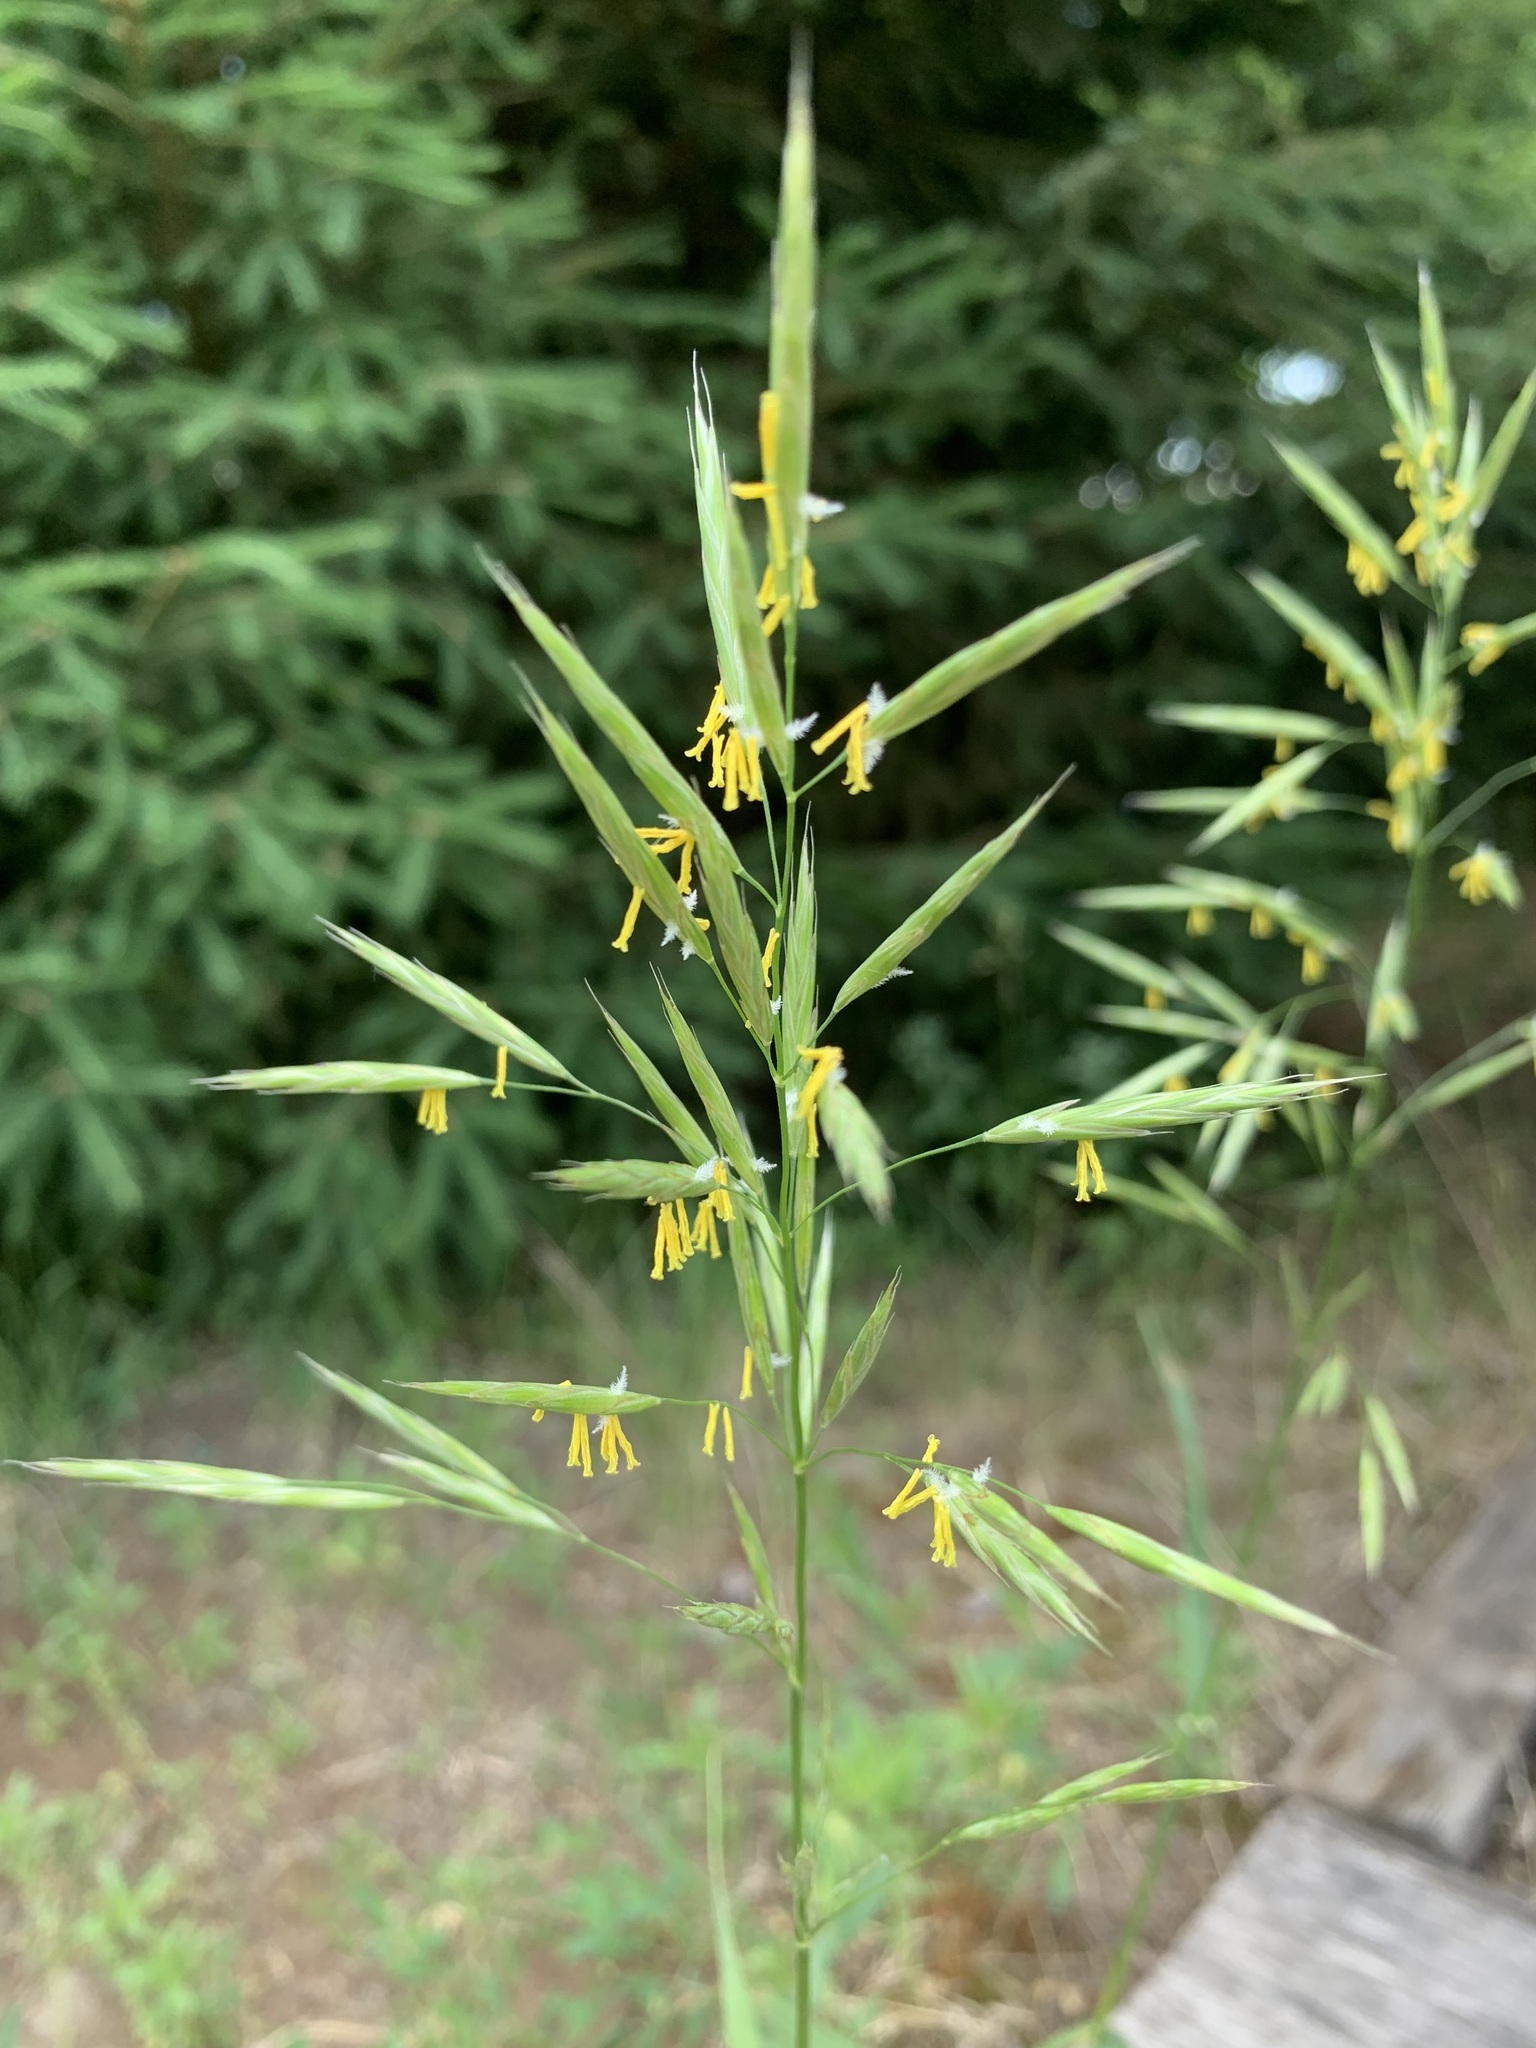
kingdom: Plantae
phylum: Tracheophyta
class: Liliopsida
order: Poales
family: Poaceae
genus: Bromus
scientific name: Bromus riparius
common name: Meadow brome
